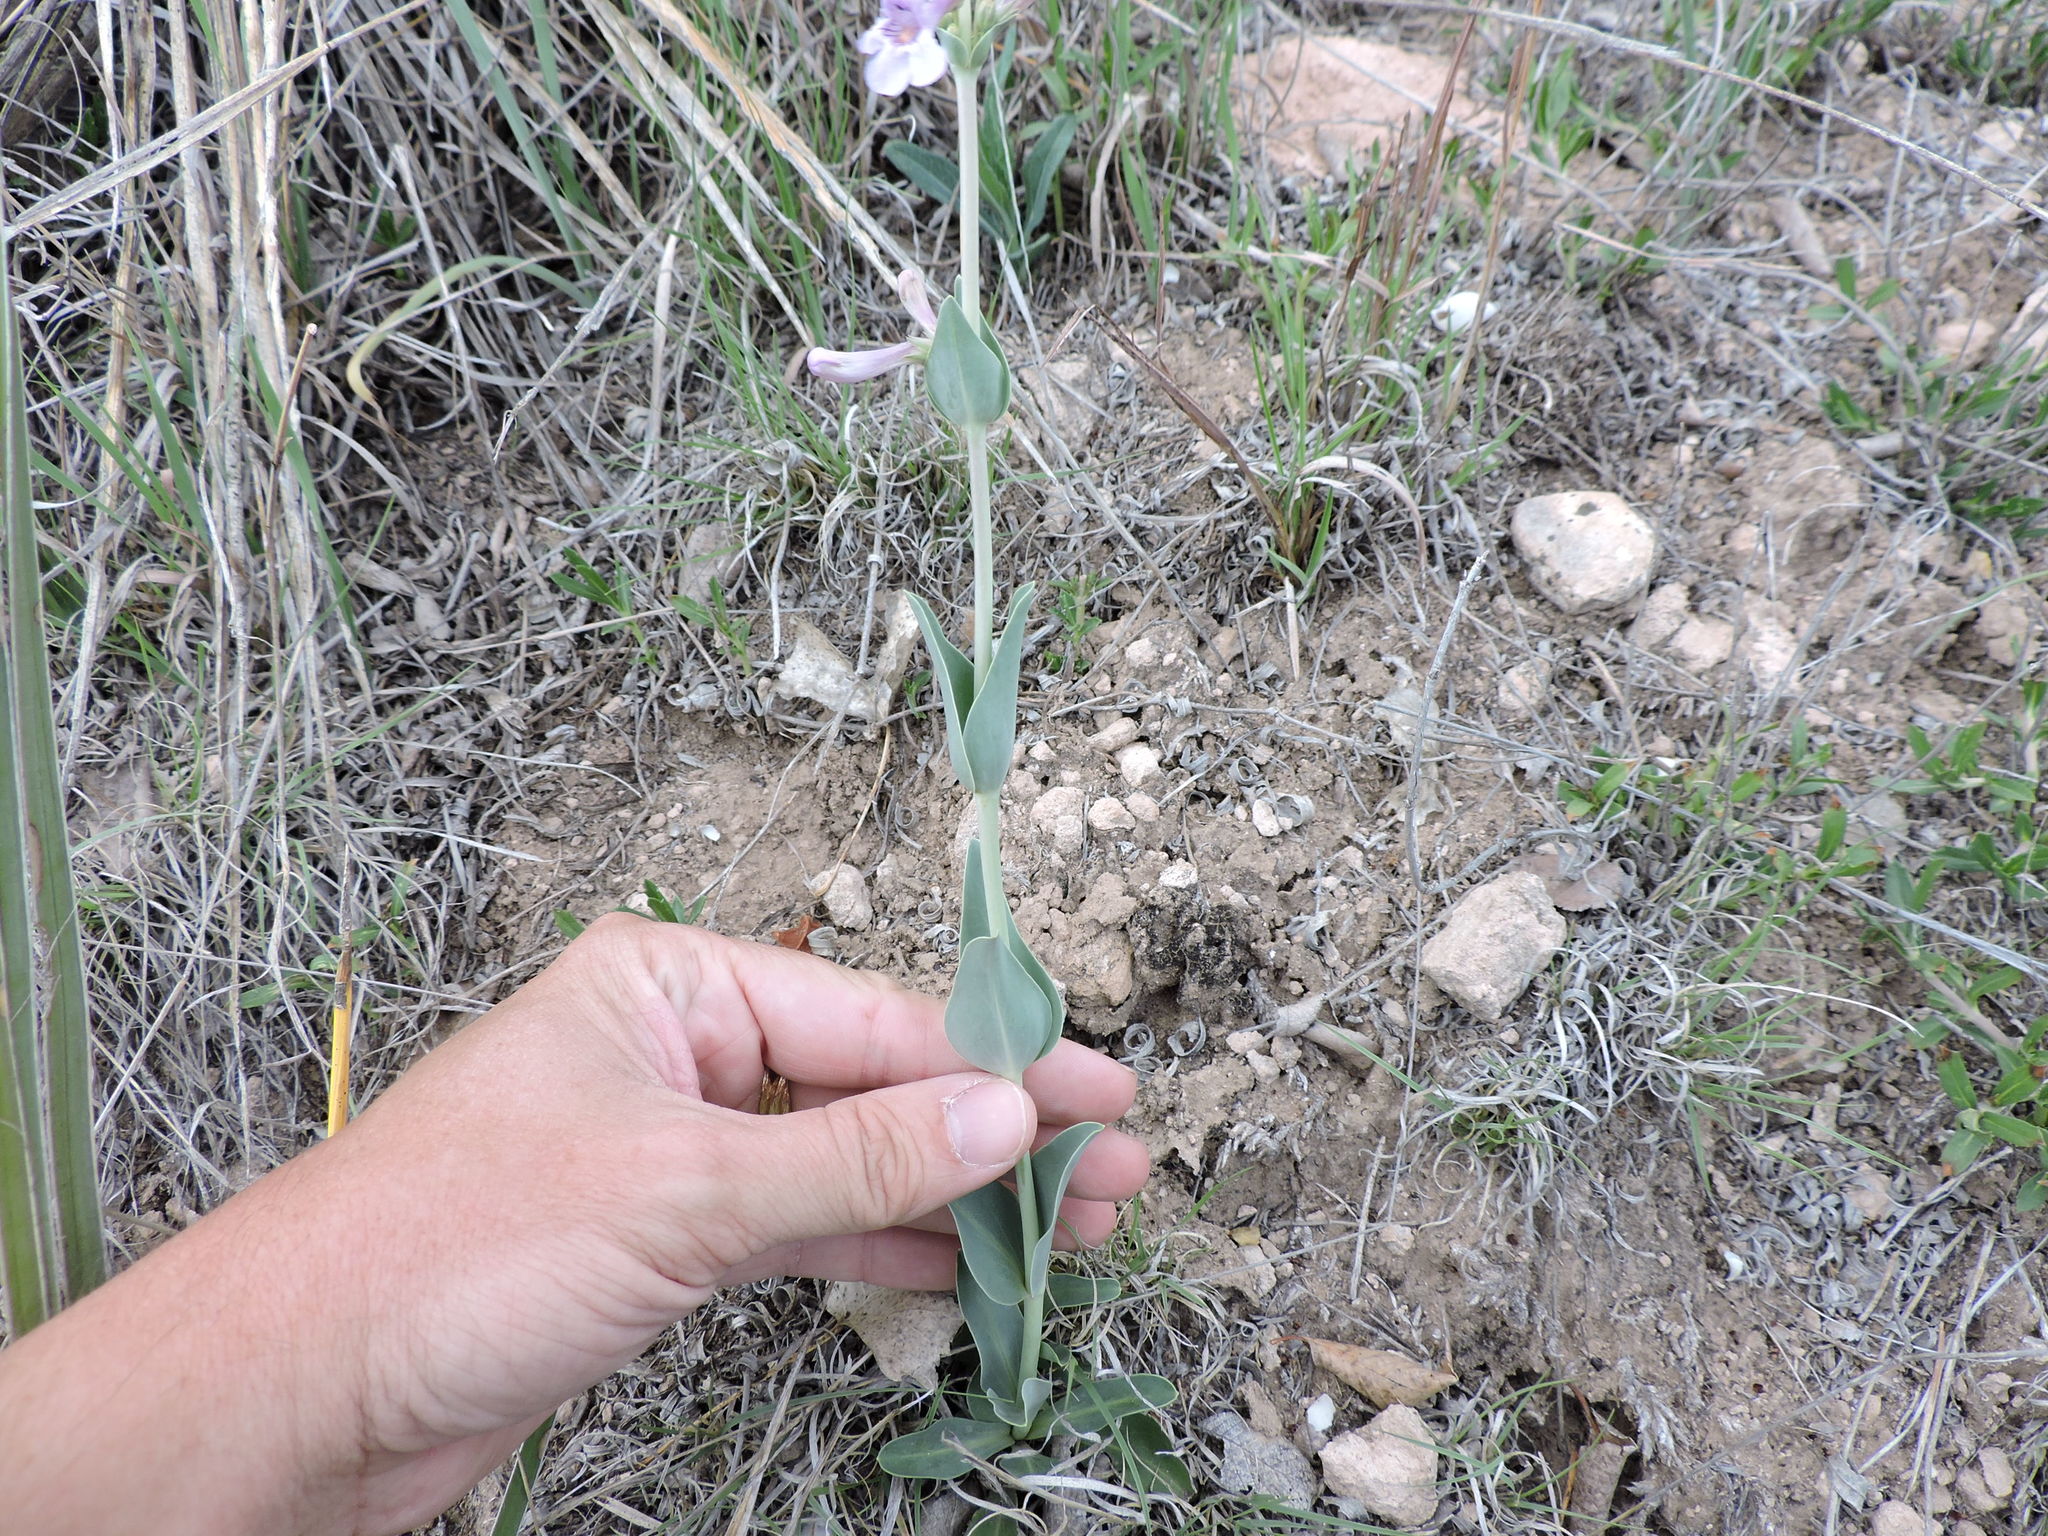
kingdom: Plantae
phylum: Tracheophyta
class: Magnoliopsida
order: Lamiales
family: Plantaginaceae
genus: Penstemon
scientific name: Penstemon fendleri
